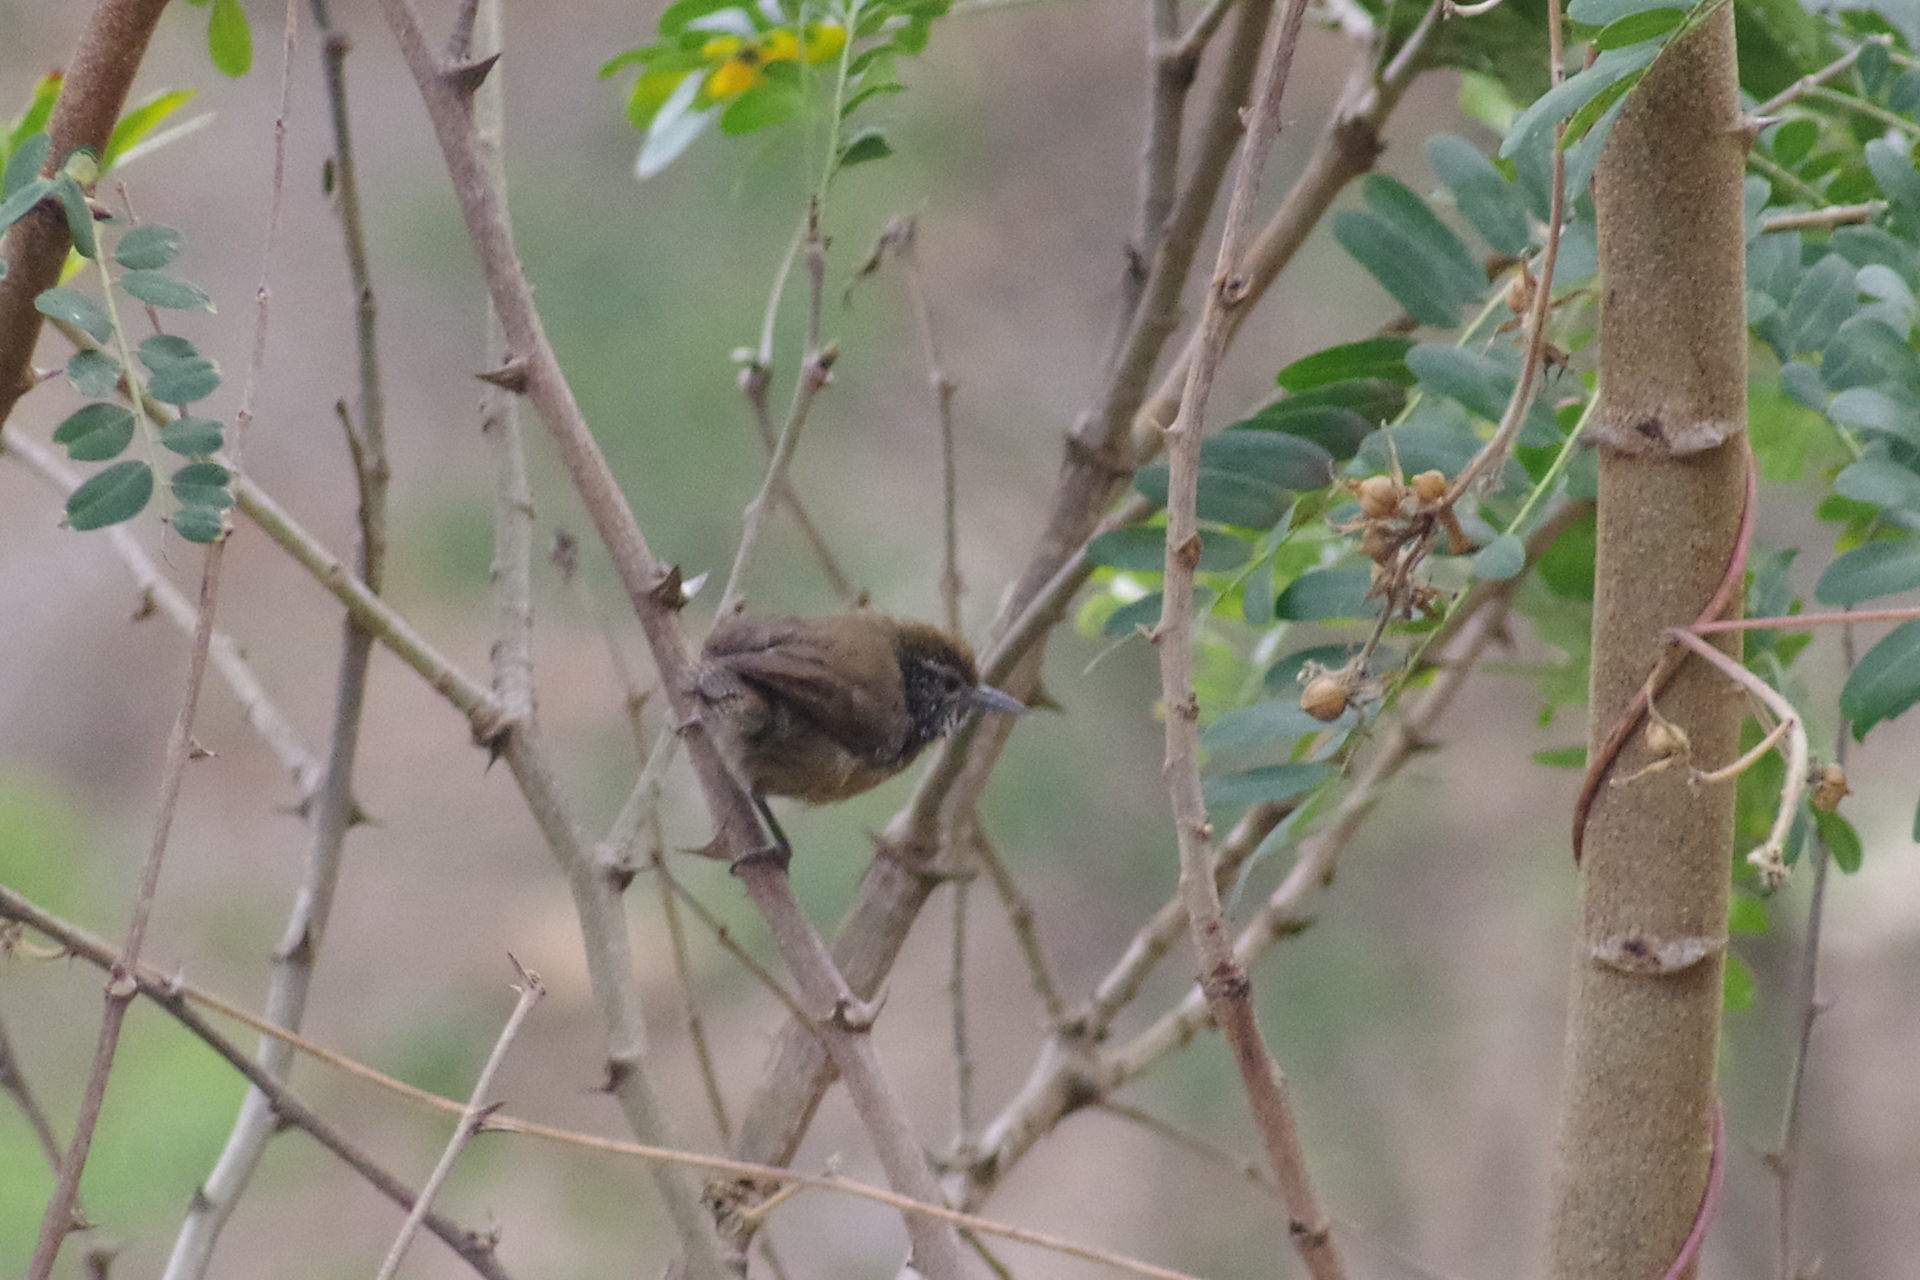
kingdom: Animalia
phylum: Chordata
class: Aves
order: Passeriformes
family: Troglodytidae
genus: Pheugopedius
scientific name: Pheugopedius rutilus
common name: Rufous-breasted wren
